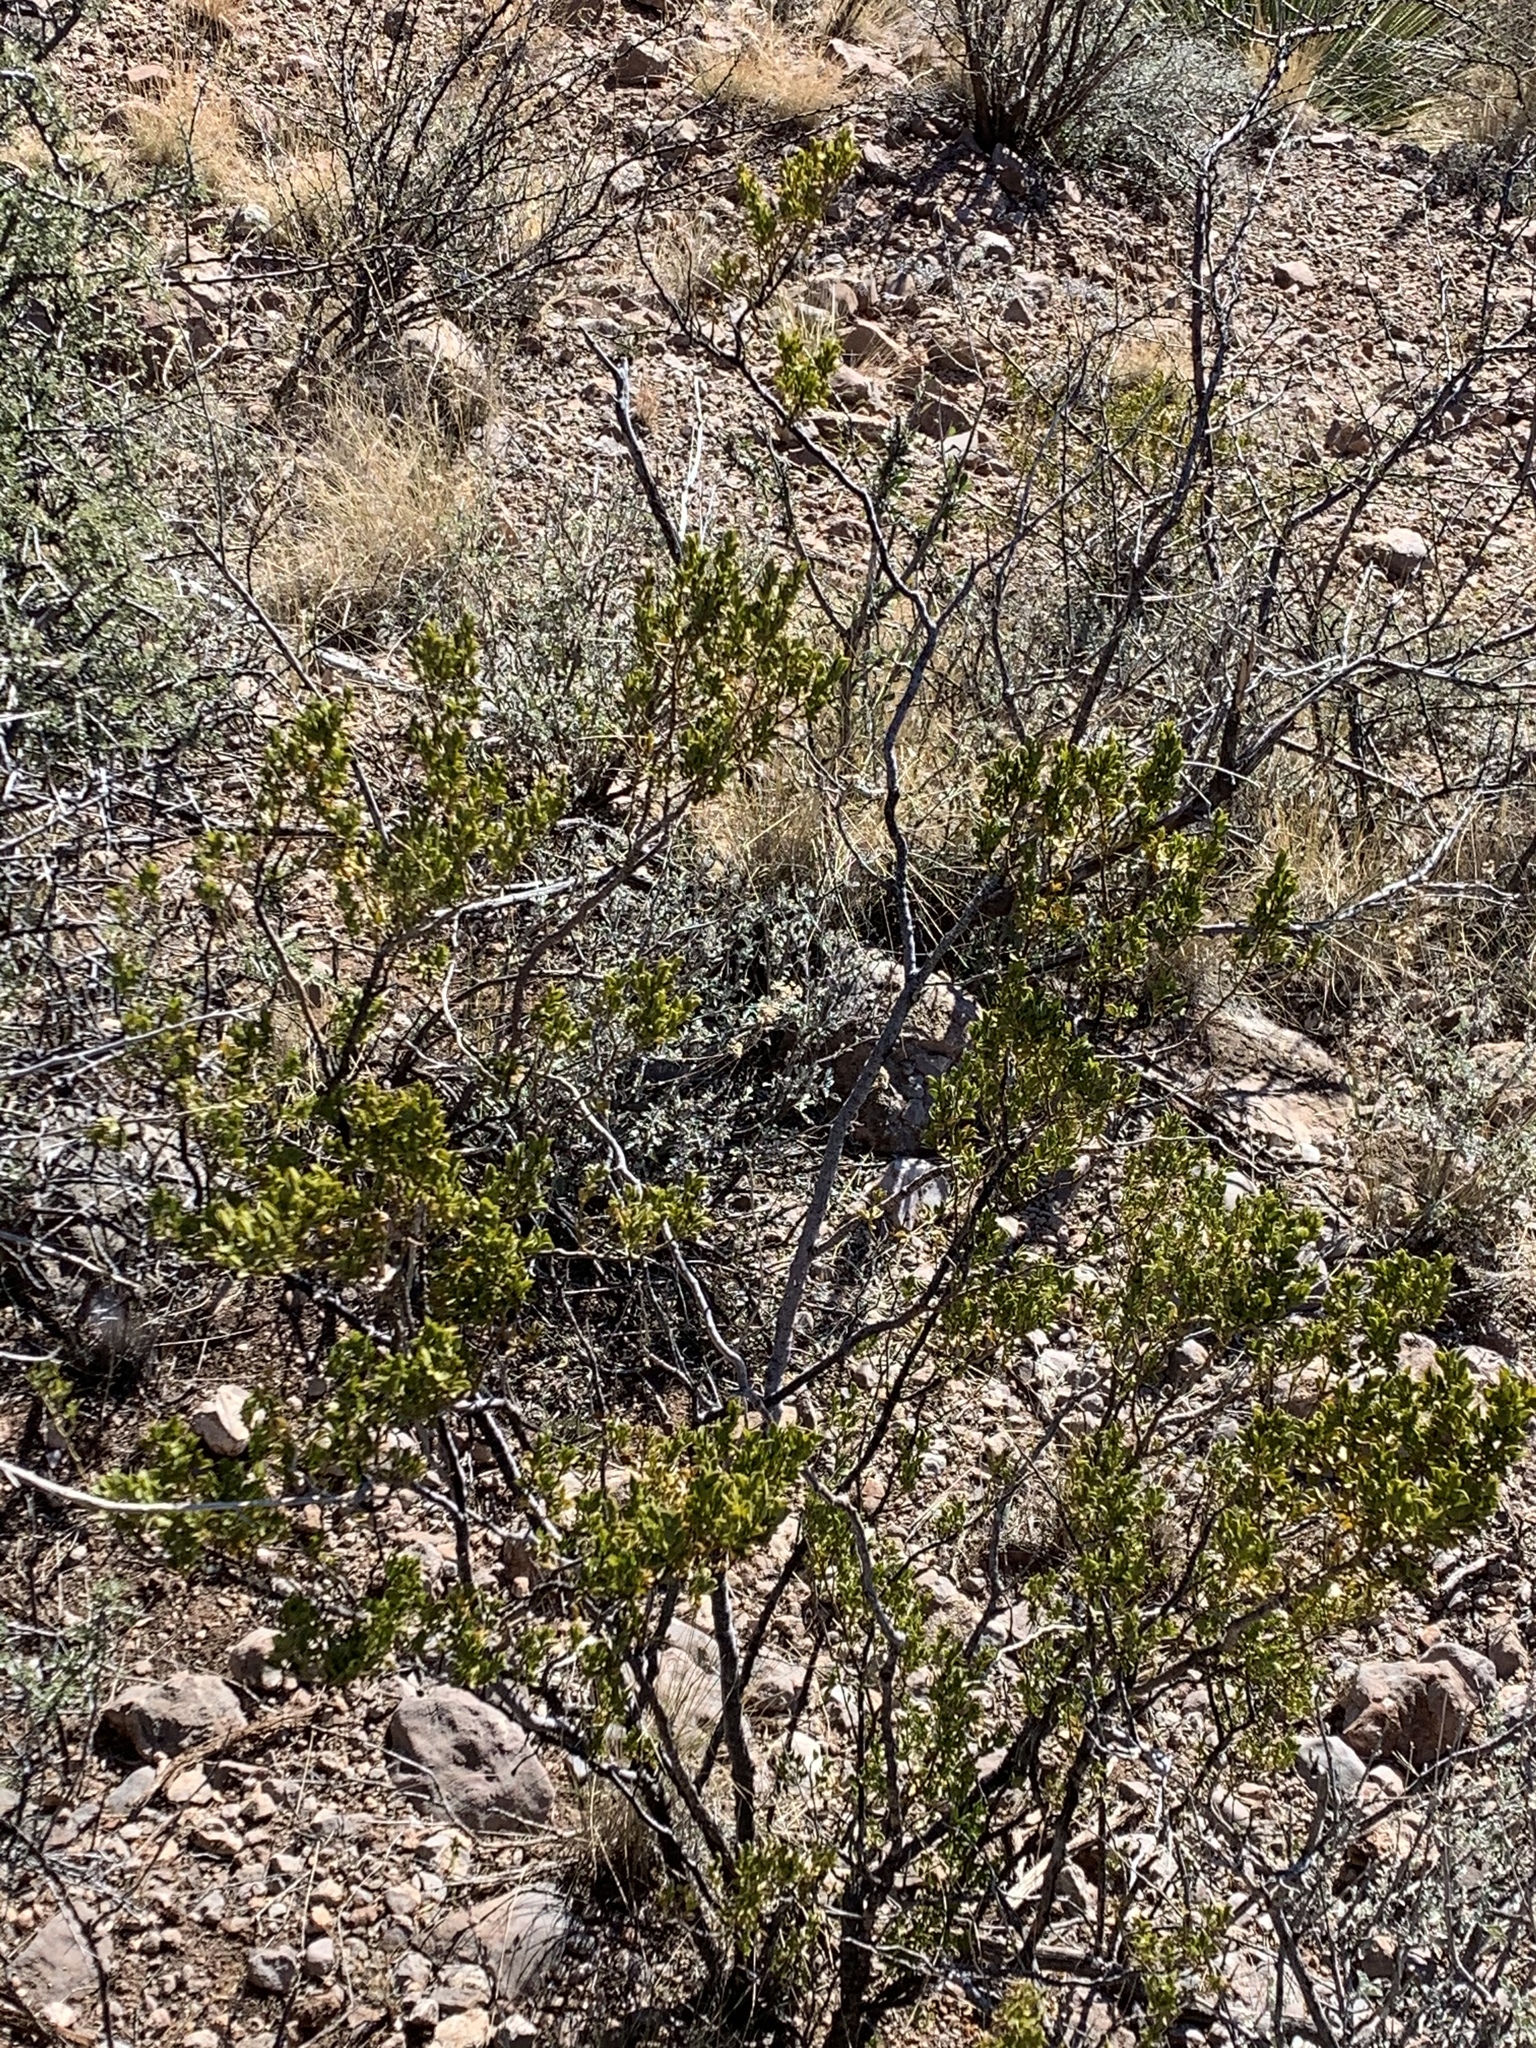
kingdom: Plantae
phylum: Tracheophyta
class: Magnoliopsida
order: Zygophyllales
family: Zygophyllaceae
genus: Larrea
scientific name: Larrea tridentata
